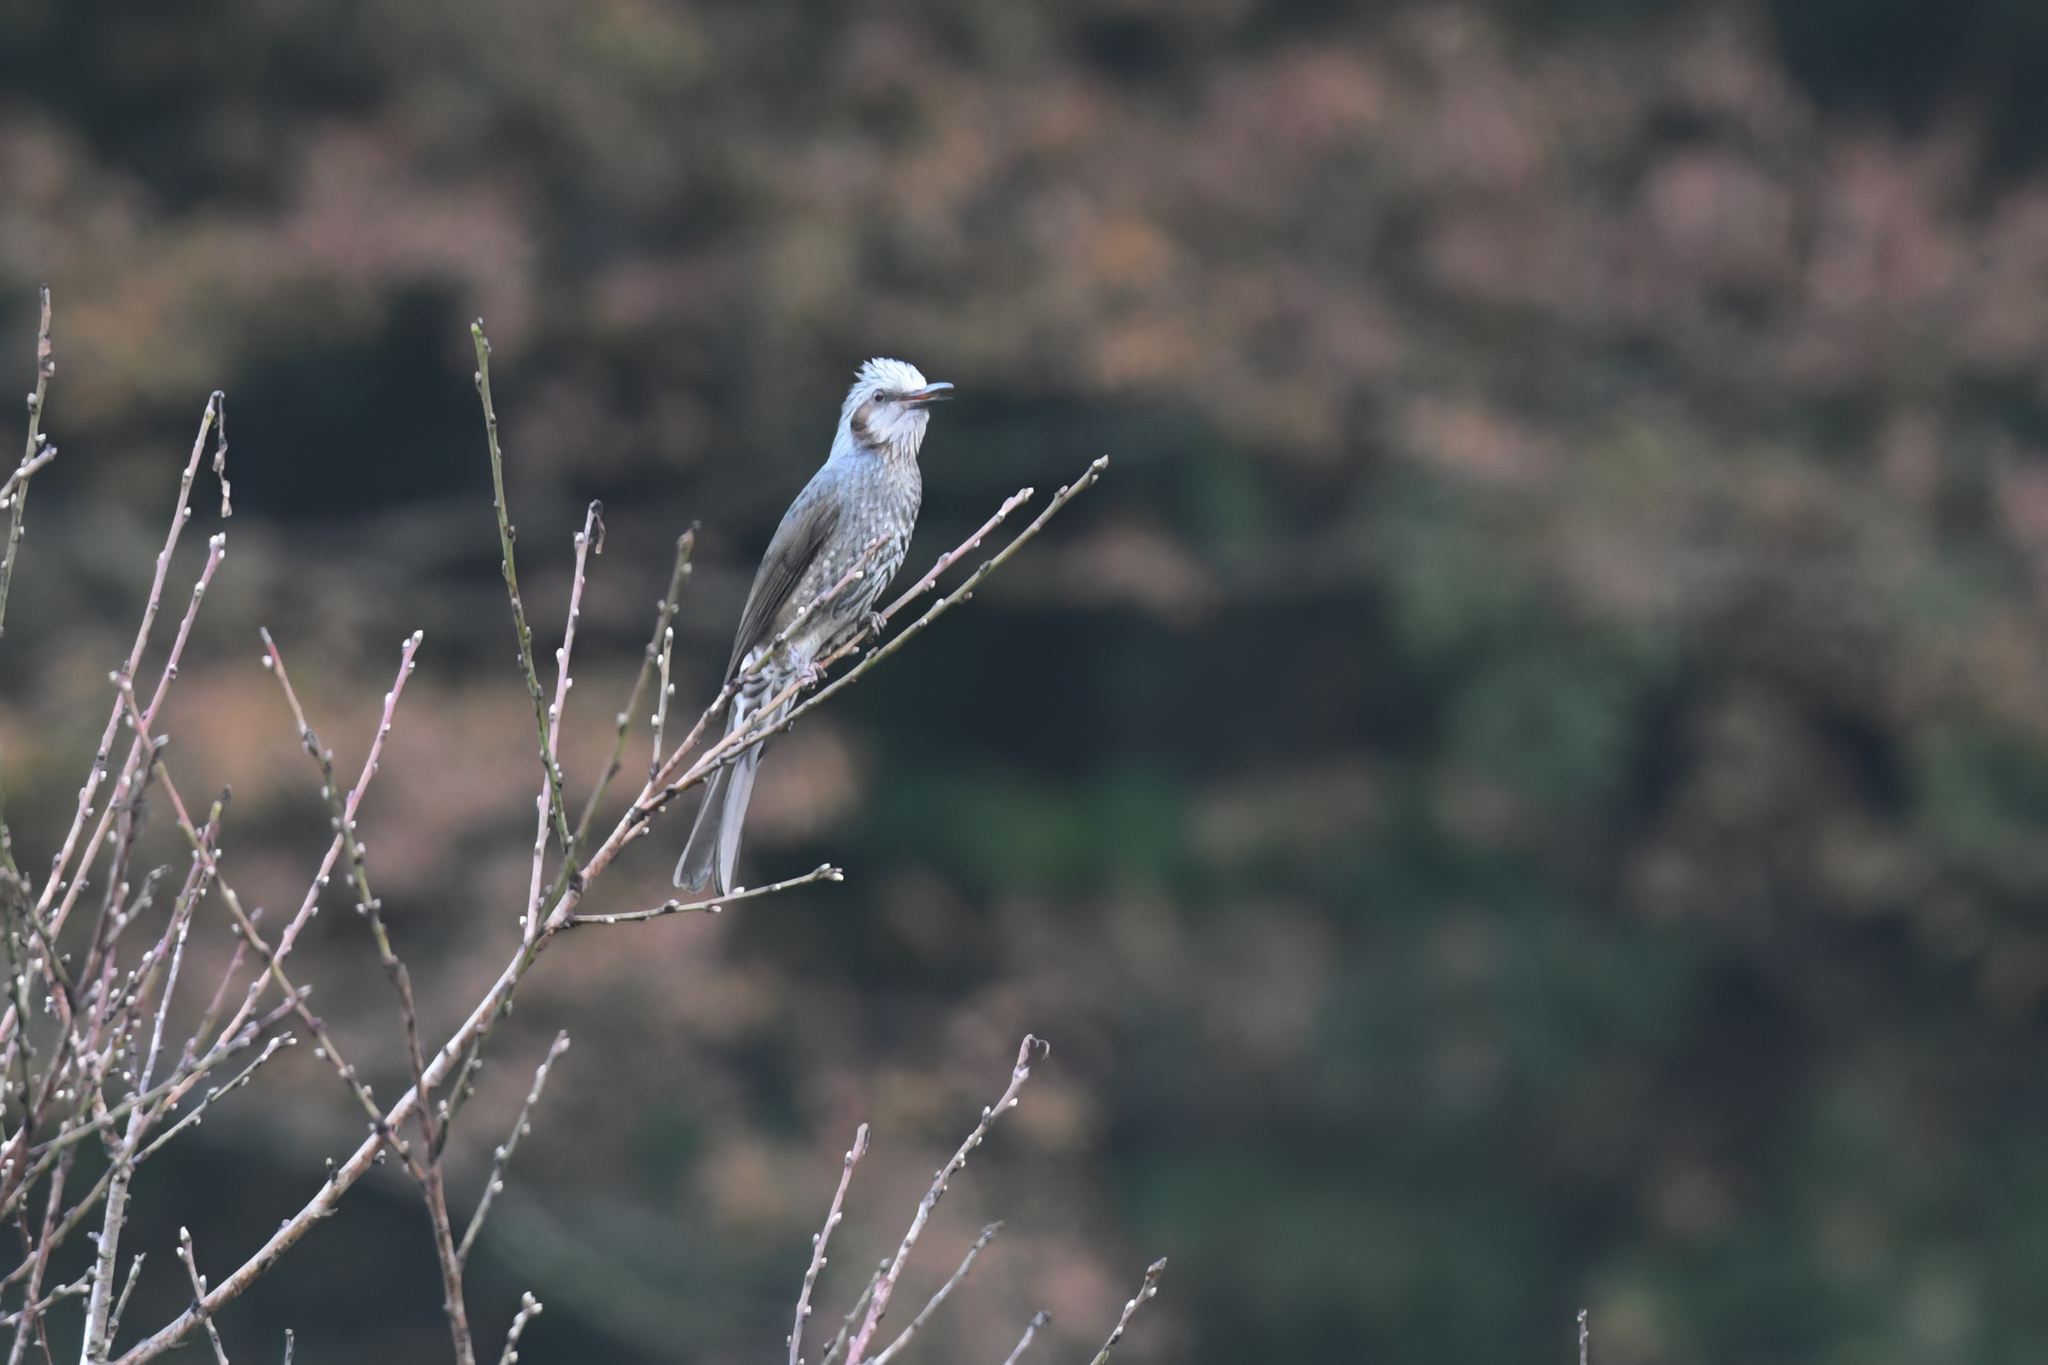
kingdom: Animalia
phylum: Chordata
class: Aves
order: Passeriformes
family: Pycnonotidae
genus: Hypsipetes
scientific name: Hypsipetes amaurotis
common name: Brown-eared bulbul
